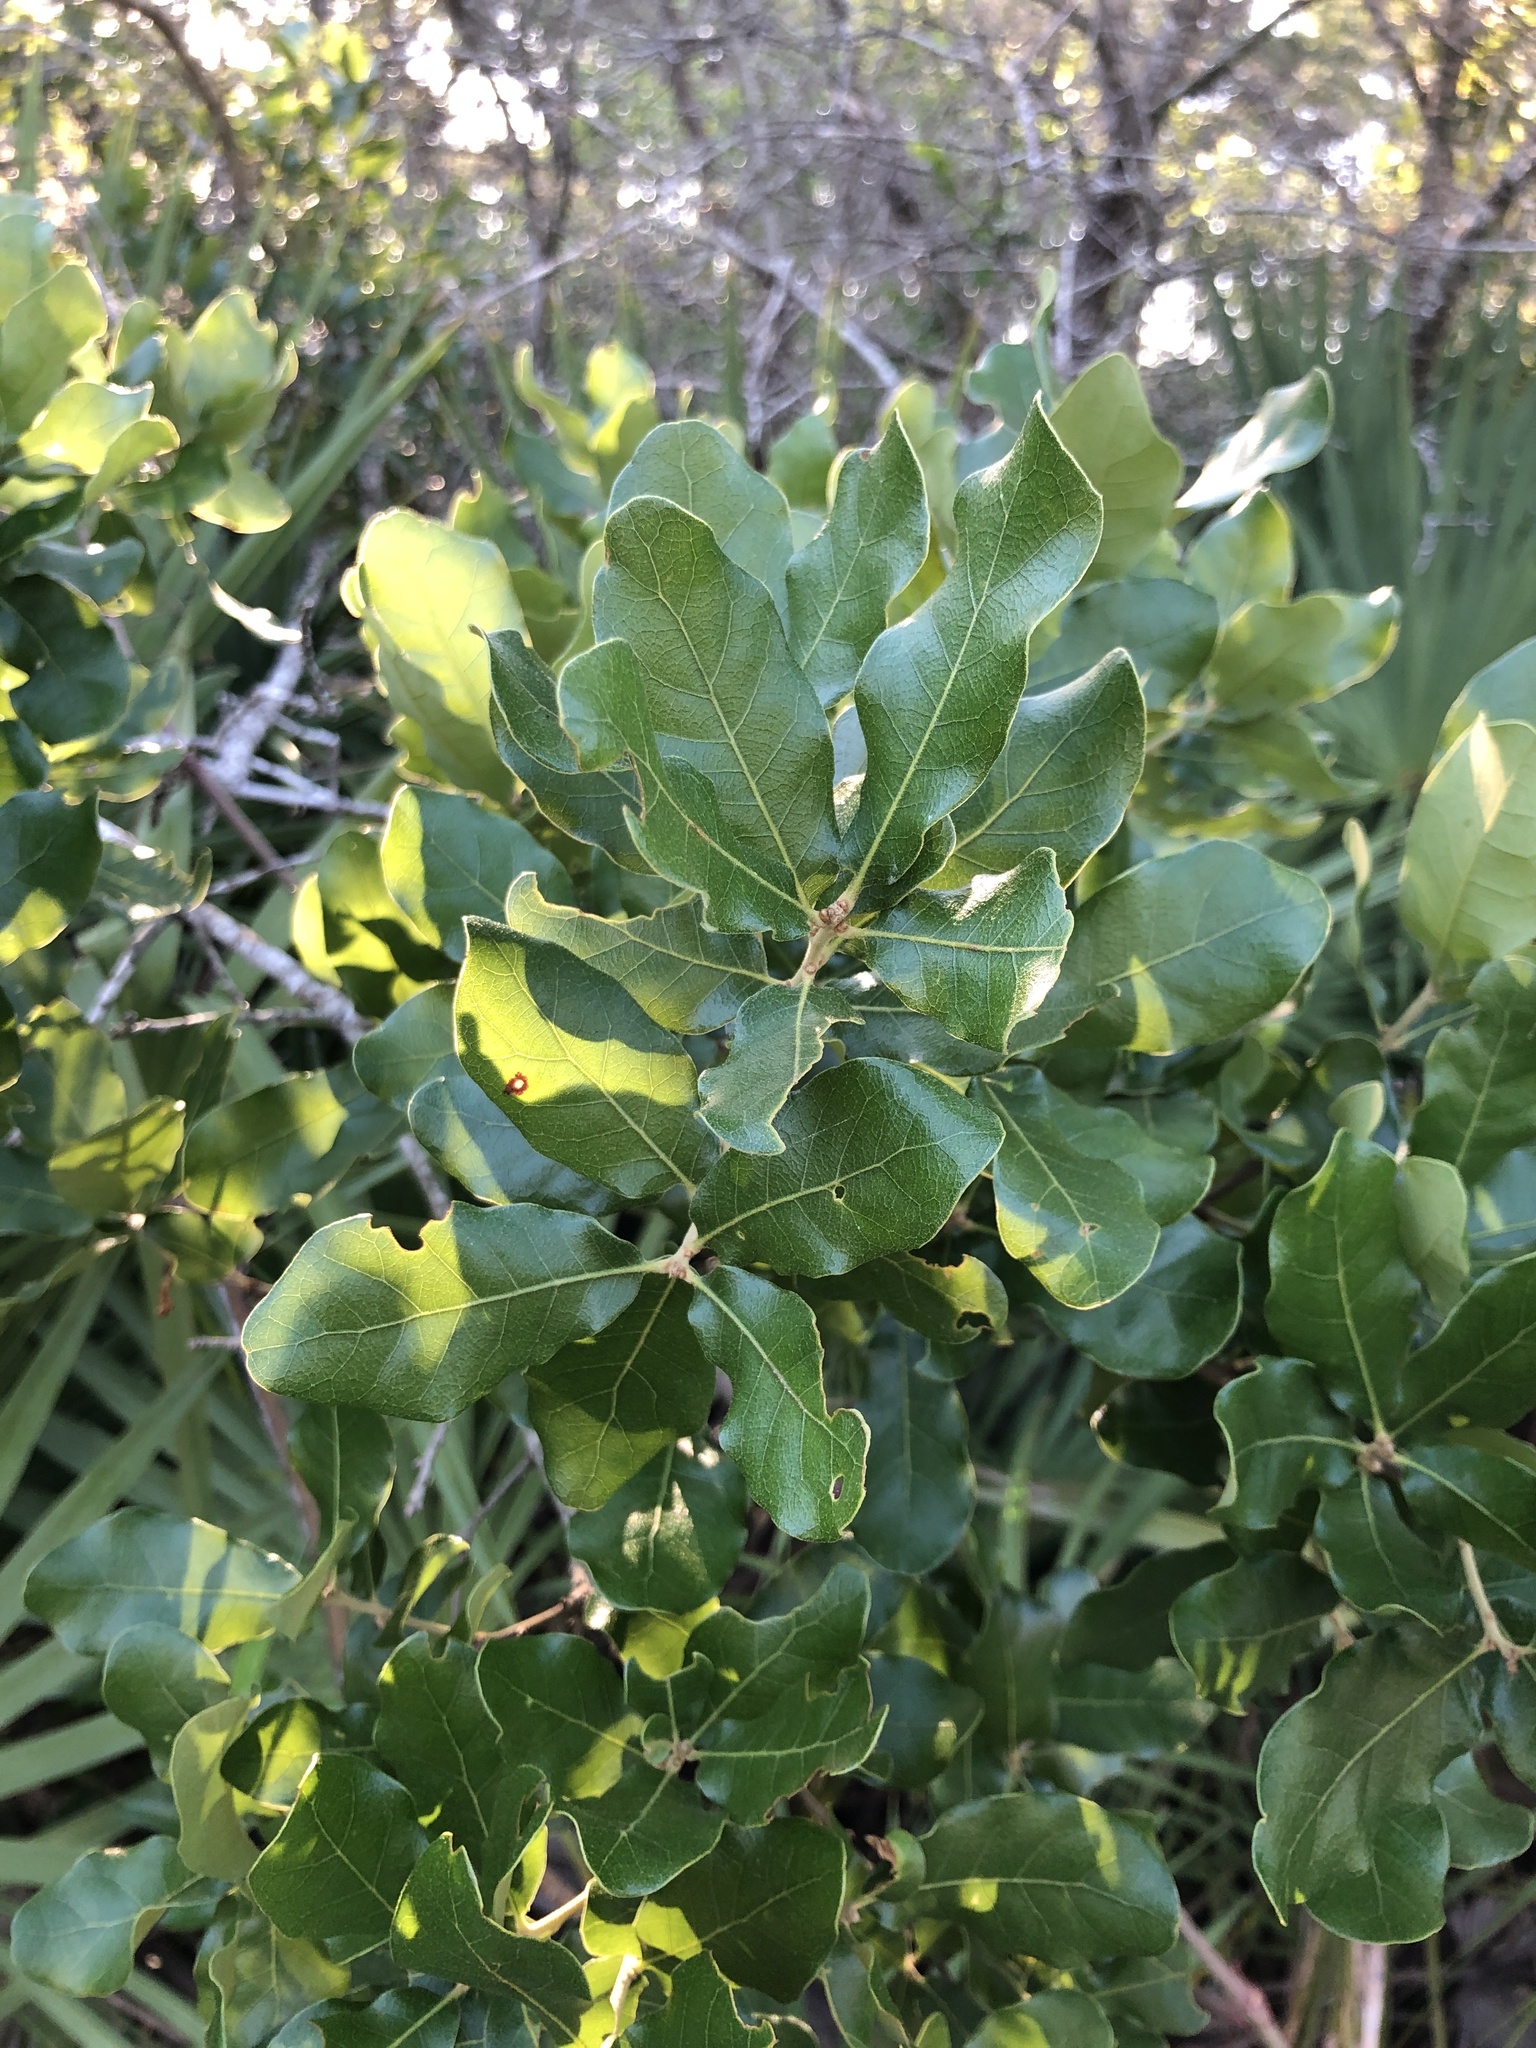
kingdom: Plantae
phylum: Tracheophyta
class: Magnoliopsida
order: Fagales
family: Fagaceae
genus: Quercus
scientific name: Quercus chapmanii
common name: Chapman oak
